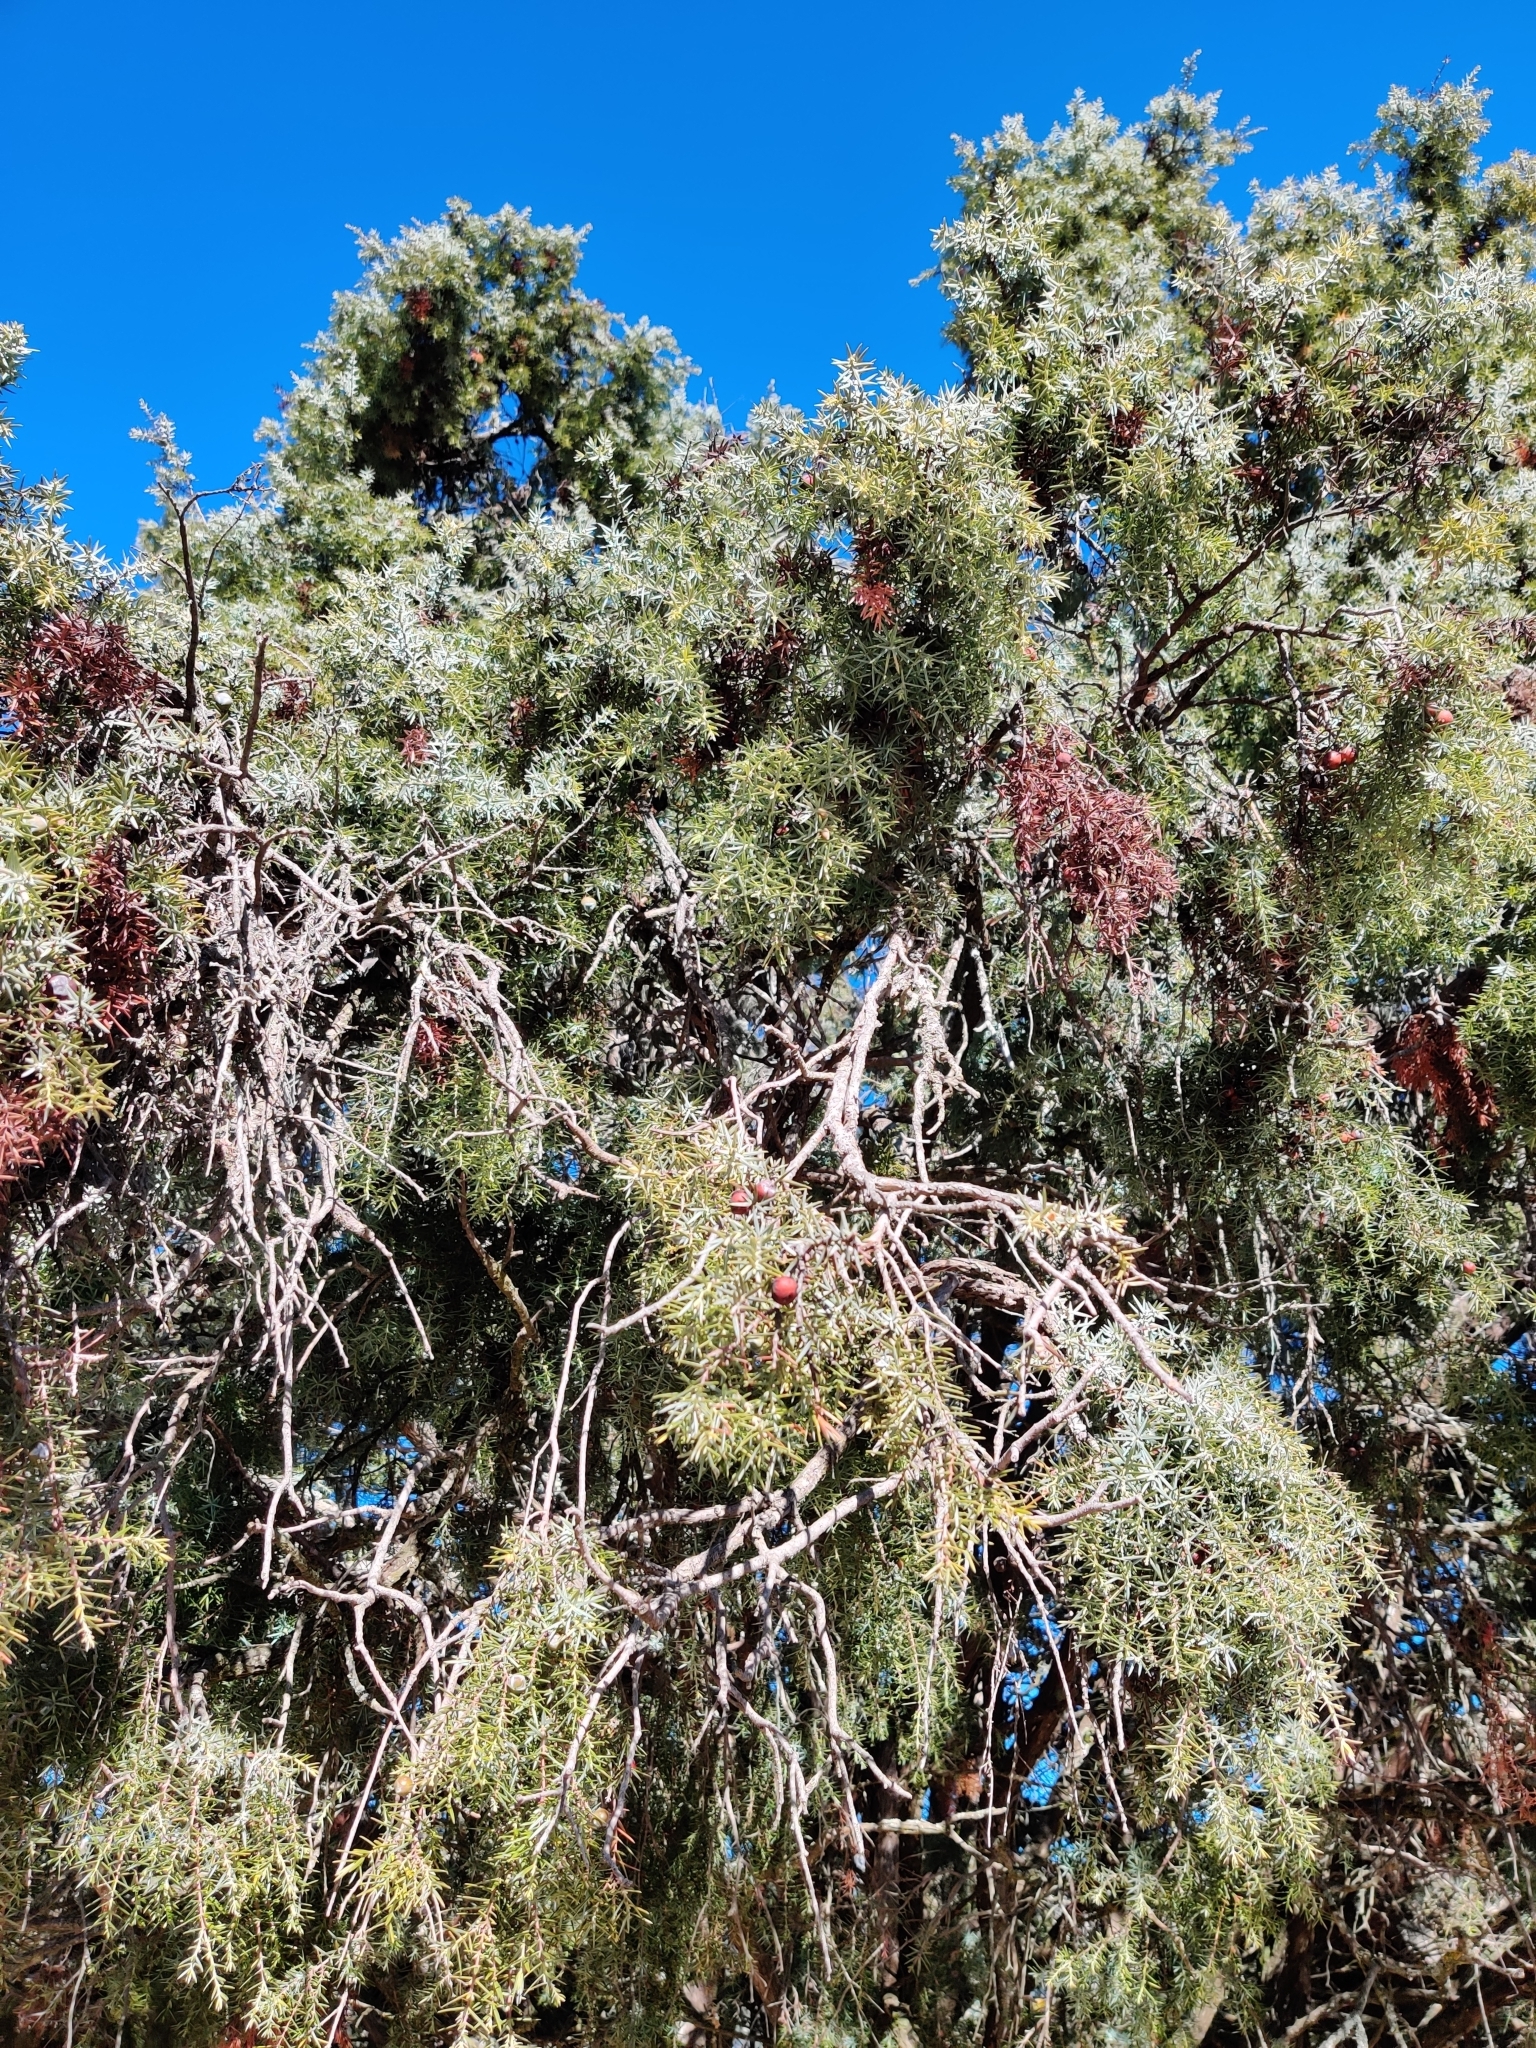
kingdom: Plantae
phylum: Tracheophyta
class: Pinopsida
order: Pinales
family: Cupressaceae
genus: Juniperus
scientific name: Juniperus oxycedrus
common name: Prickly juniper
